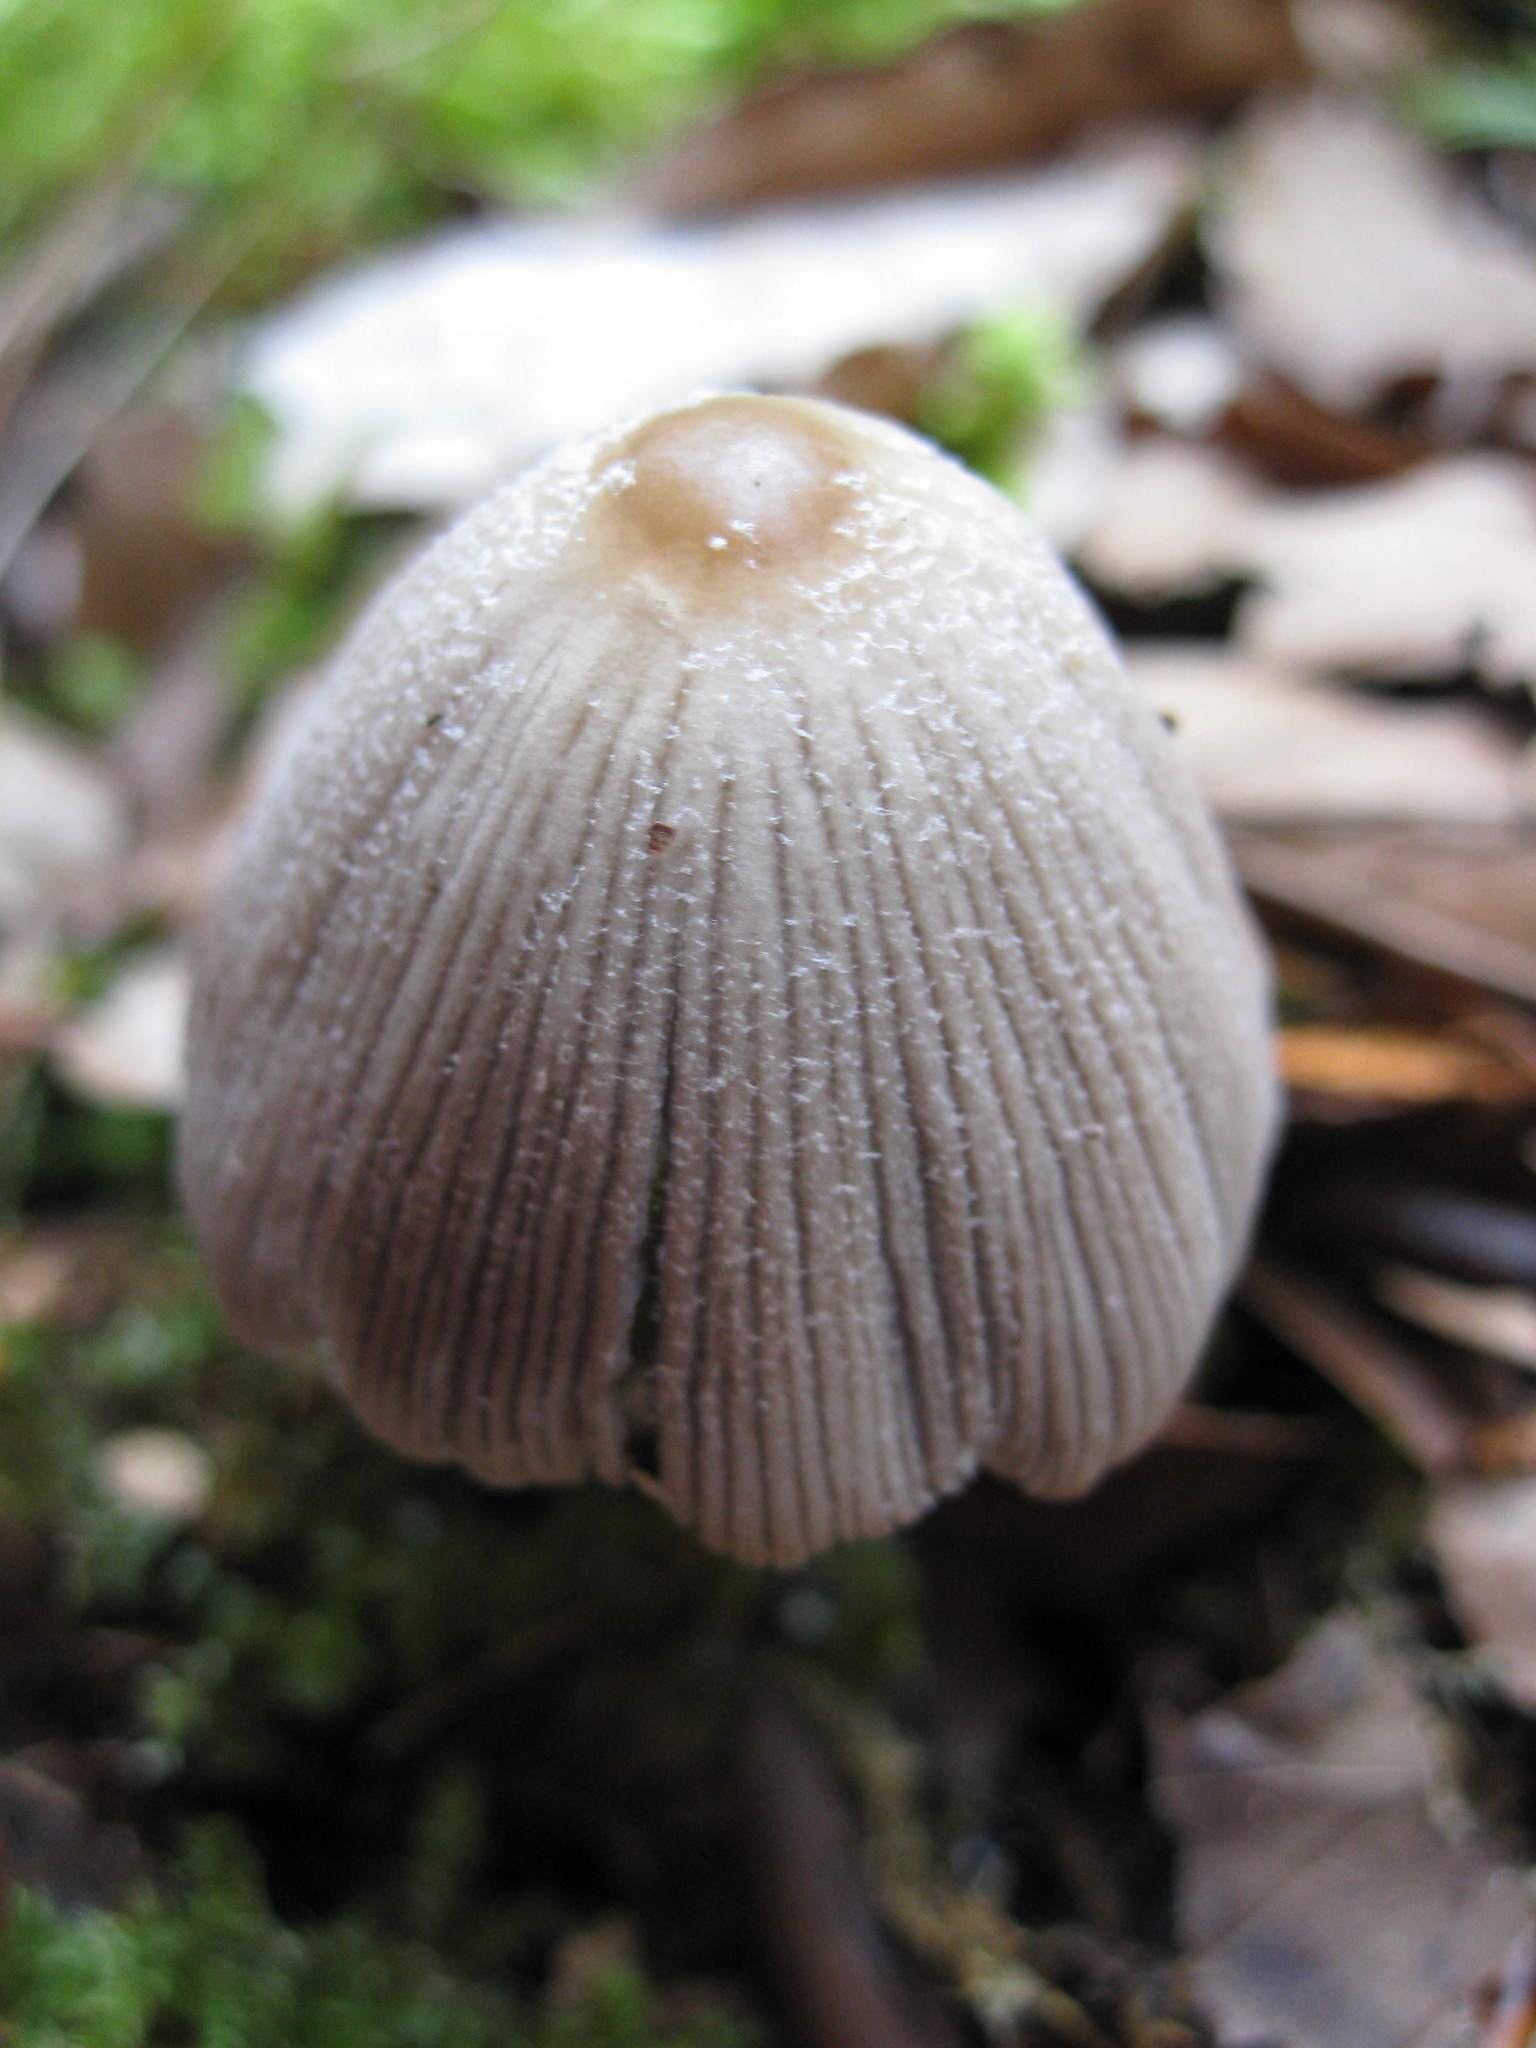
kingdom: Fungi
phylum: Basidiomycota
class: Agaricomycetes
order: Agaricales
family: Psathyrellaceae
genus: Coprinellus
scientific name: Coprinellus disseminatus
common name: Fairies' bonnets
